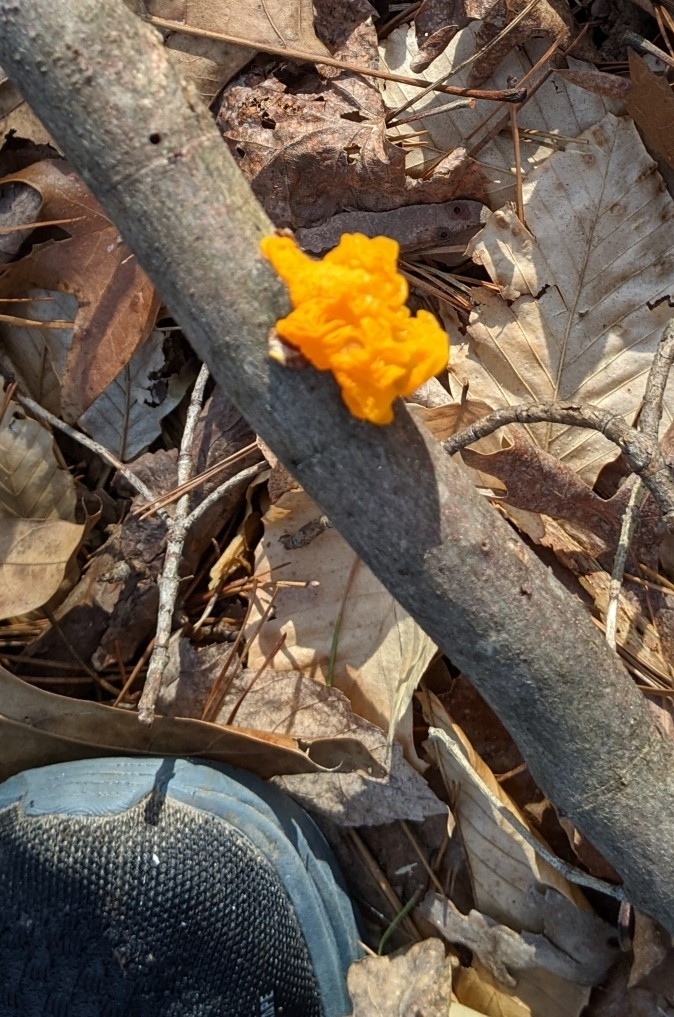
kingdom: Fungi
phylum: Basidiomycota
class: Tremellomycetes
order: Tremellales
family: Tremellaceae
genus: Tremella
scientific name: Tremella mesenterica
